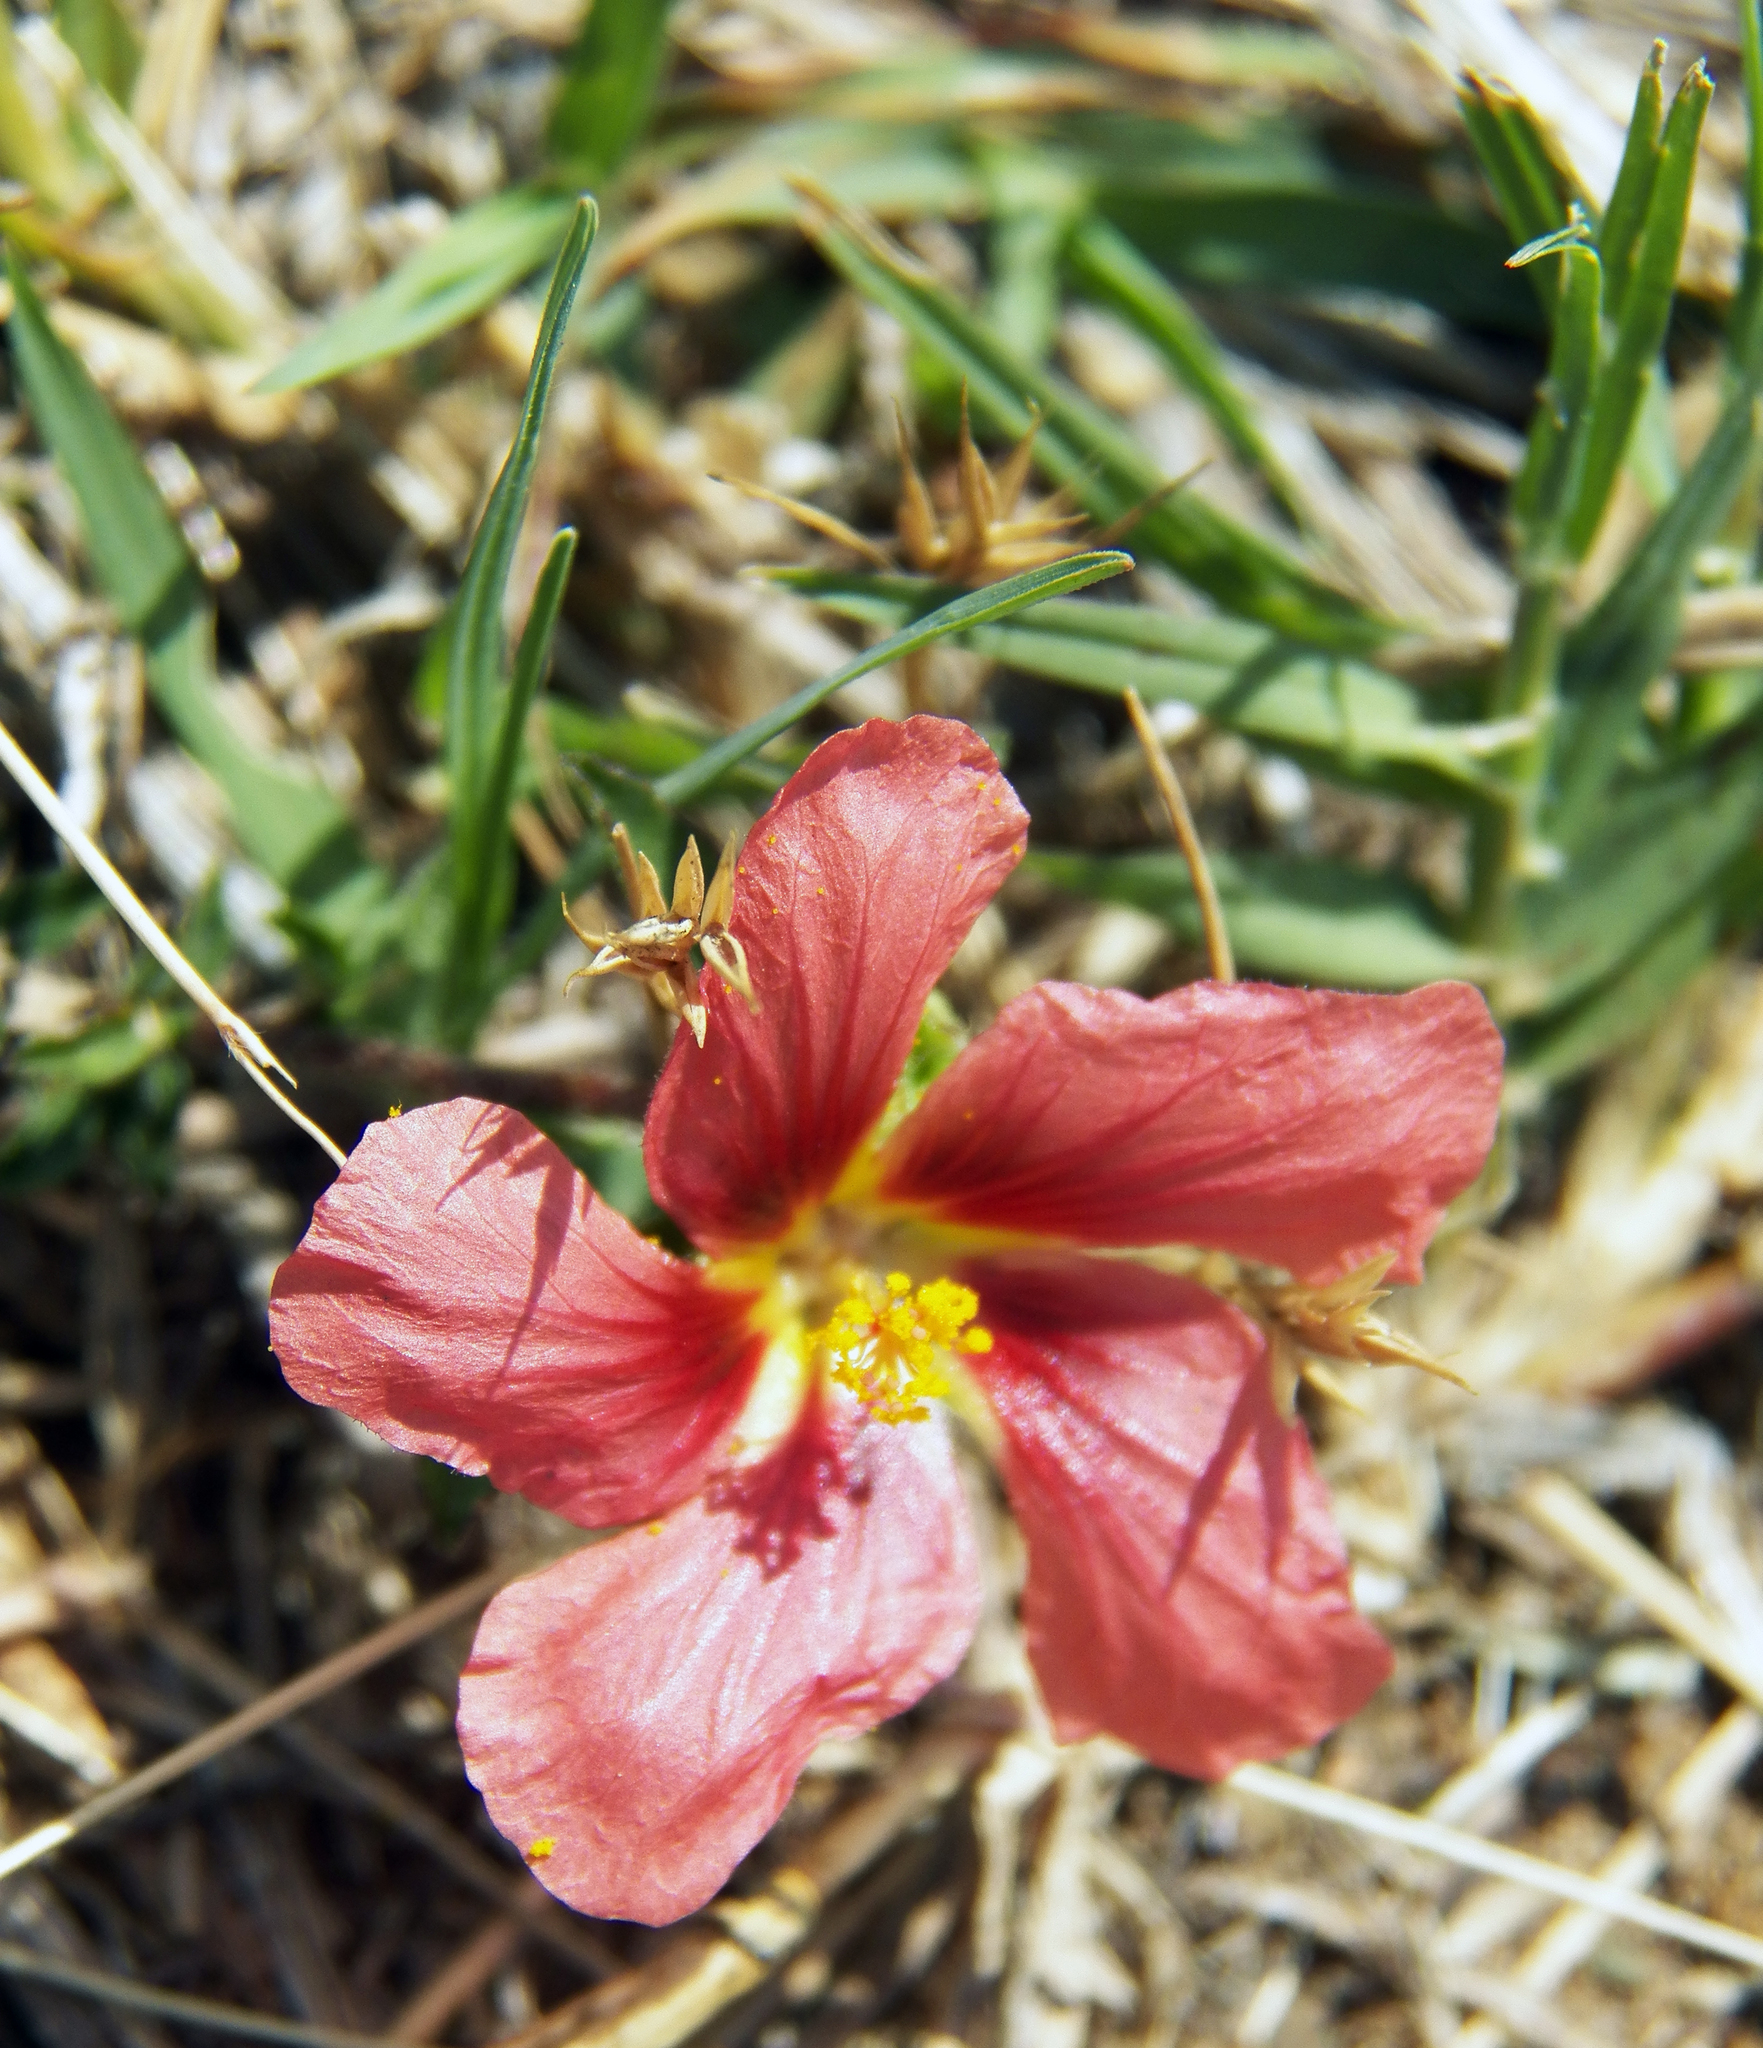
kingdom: Plantae
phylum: Tracheophyta
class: Magnoliopsida
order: Malvales
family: Malvaceae
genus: Sida
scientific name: Sida ciliaris
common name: Bracted fanpetals
